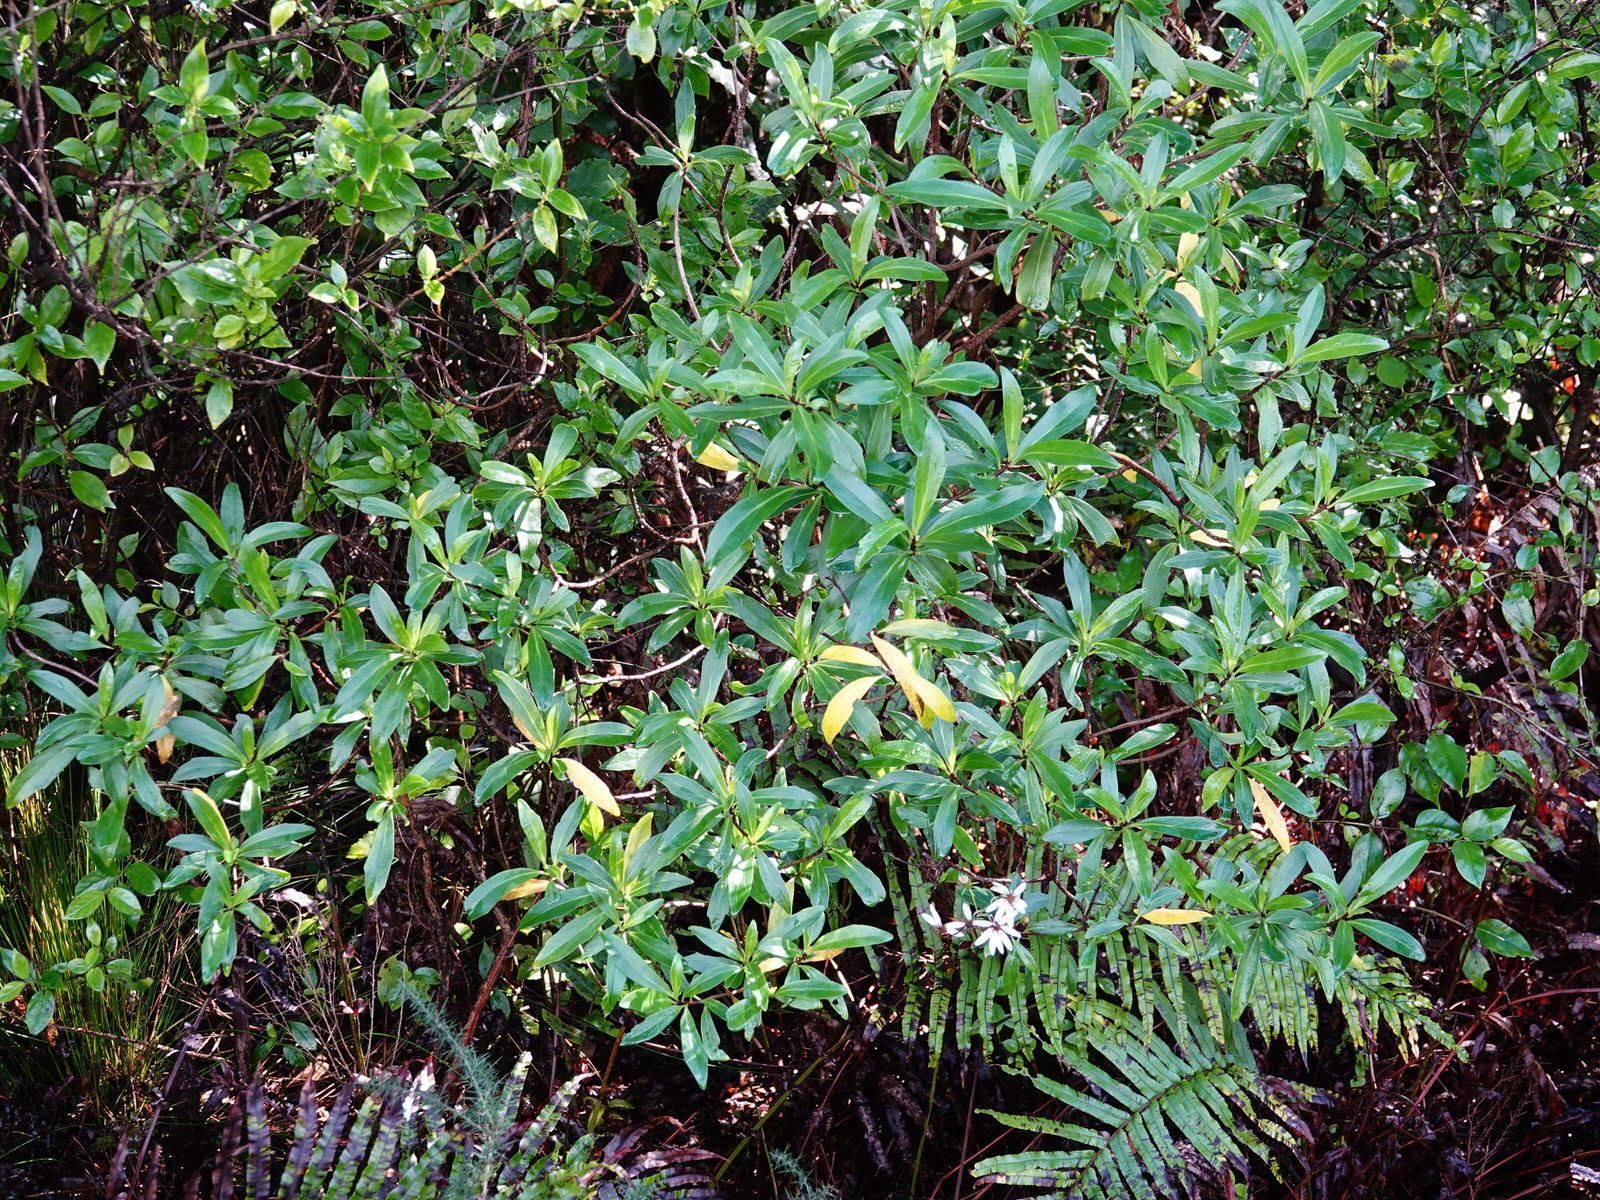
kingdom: Plantae
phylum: Tracheophyta
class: Magnoliopsida
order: Asterales
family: Asteraceae
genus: Brachyglottis
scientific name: Brachyglottis kirkii
